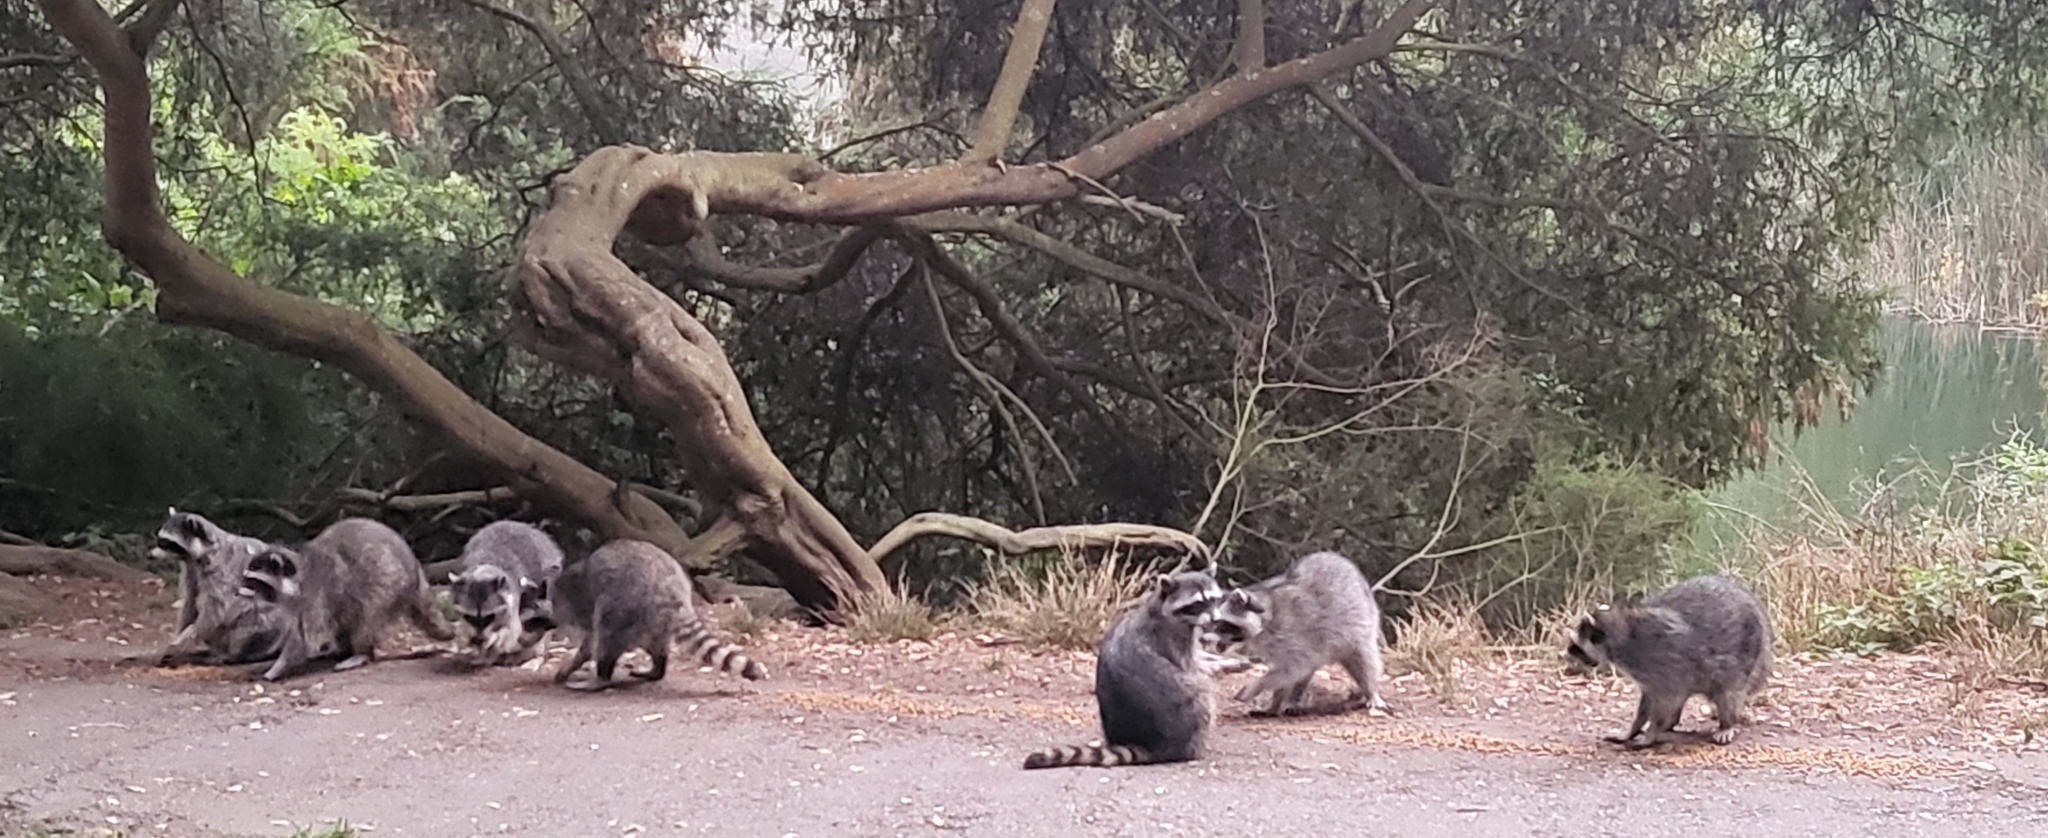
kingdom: Animalia
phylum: Chordata
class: Mammalia
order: Carnivora
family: Procyonidae
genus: Procyon
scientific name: Procyon lotor
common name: Raccoon
